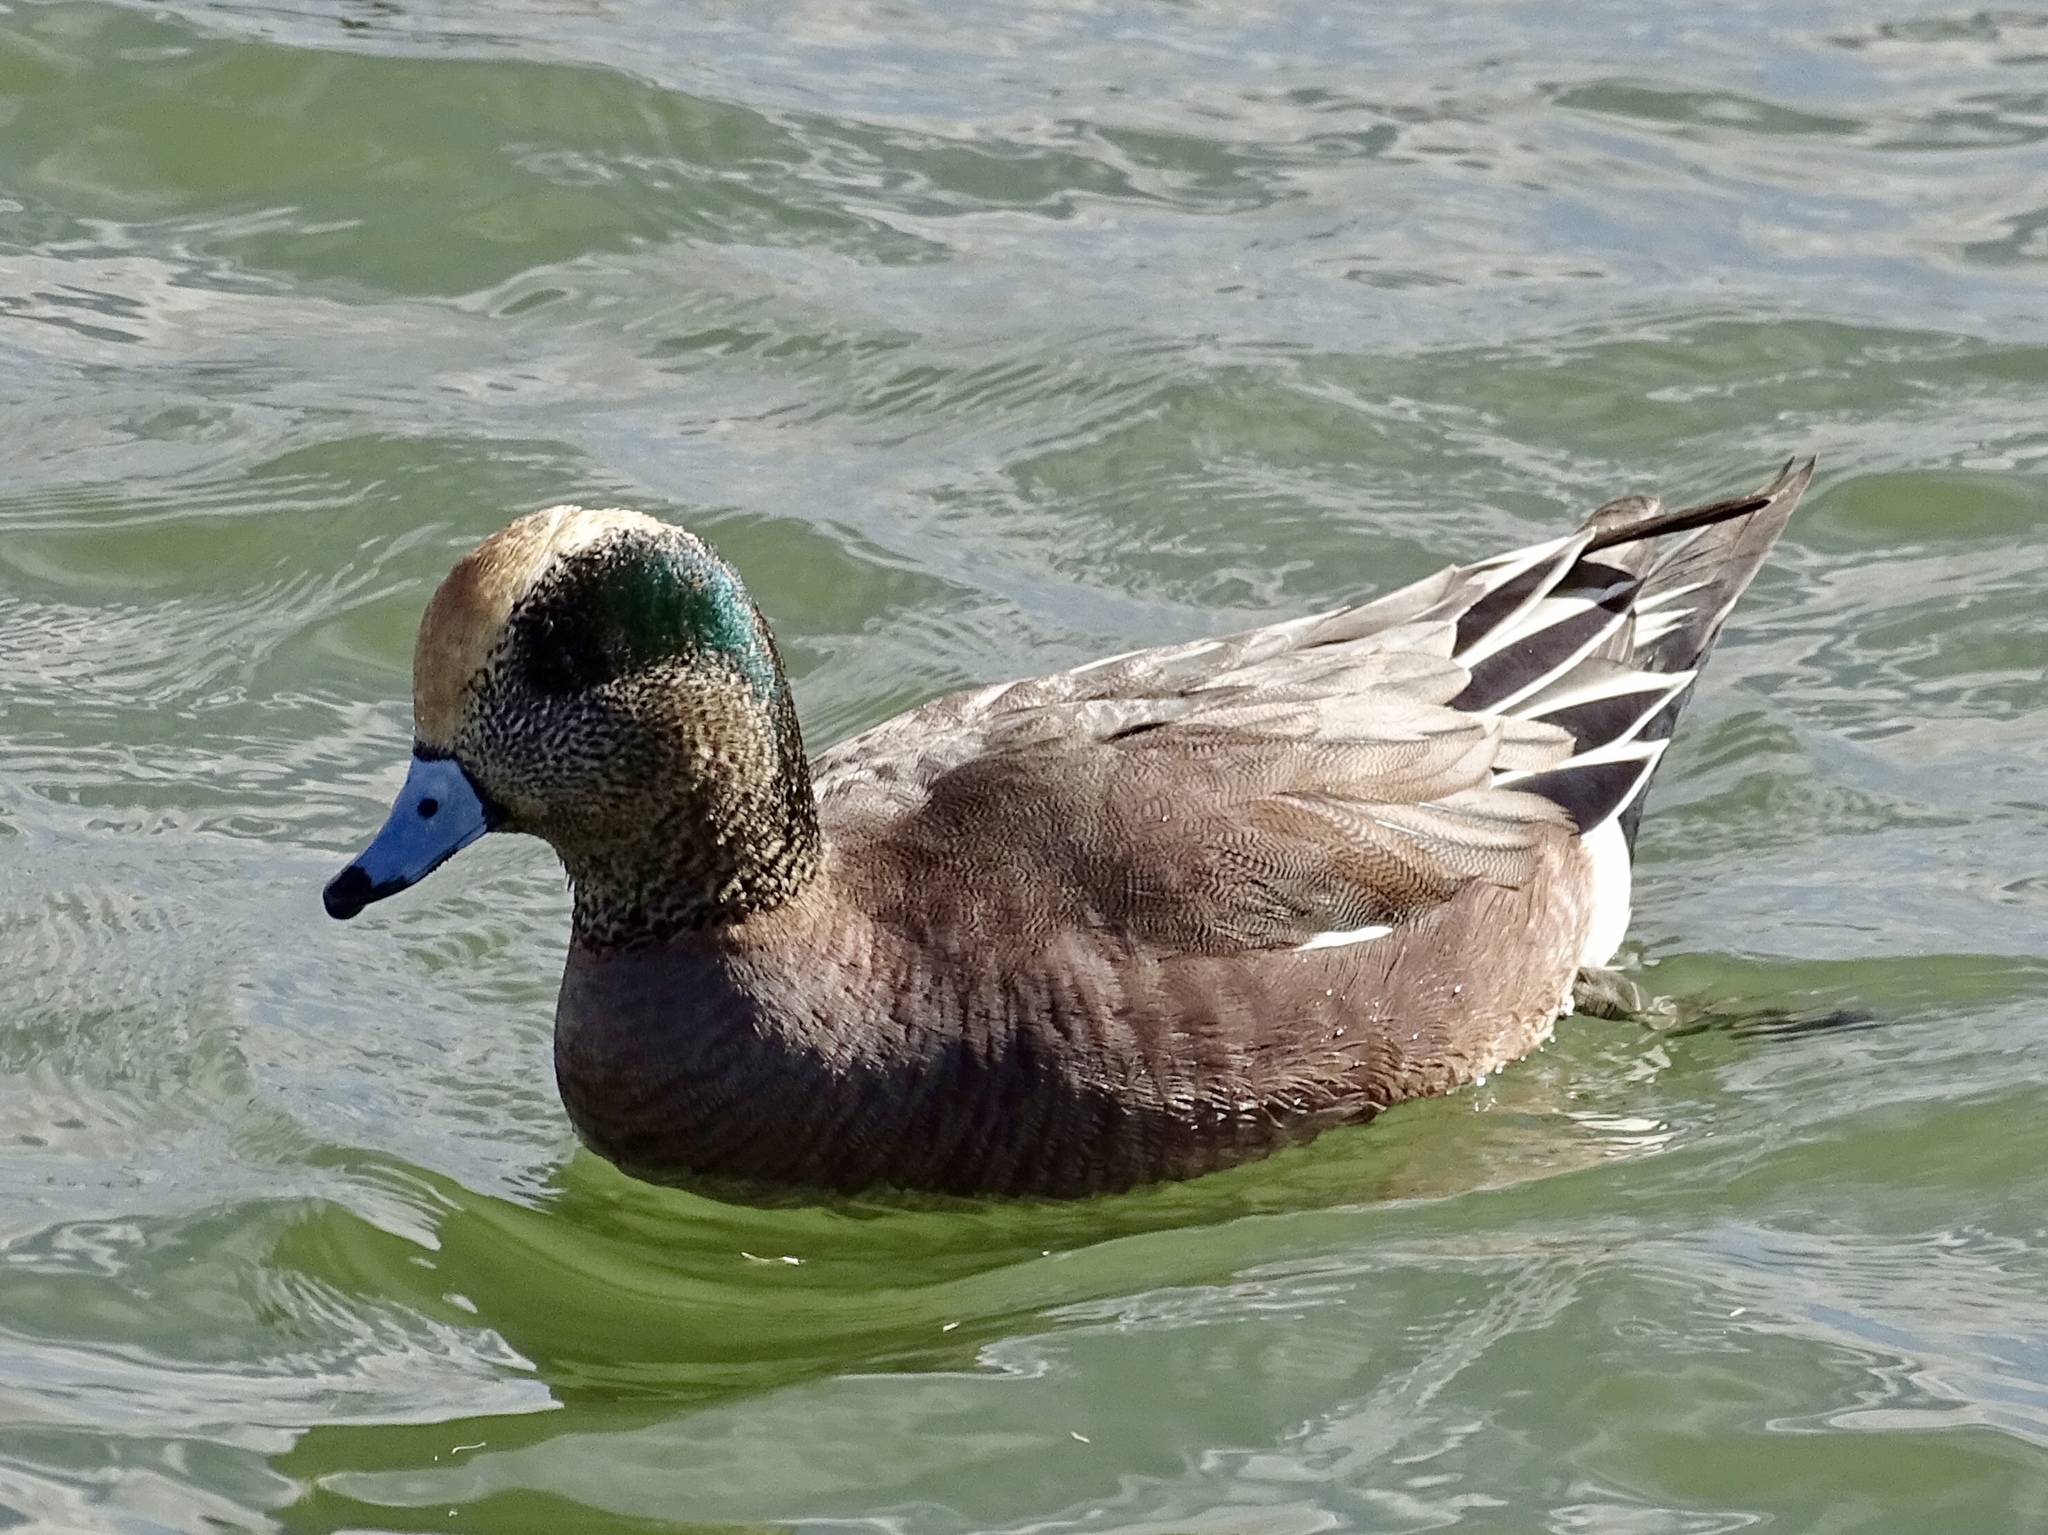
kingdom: Animalia
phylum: Chordata
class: Aves
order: Anseriformes
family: Anatidae
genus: Mareca
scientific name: Mareca americana
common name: American wigeon
